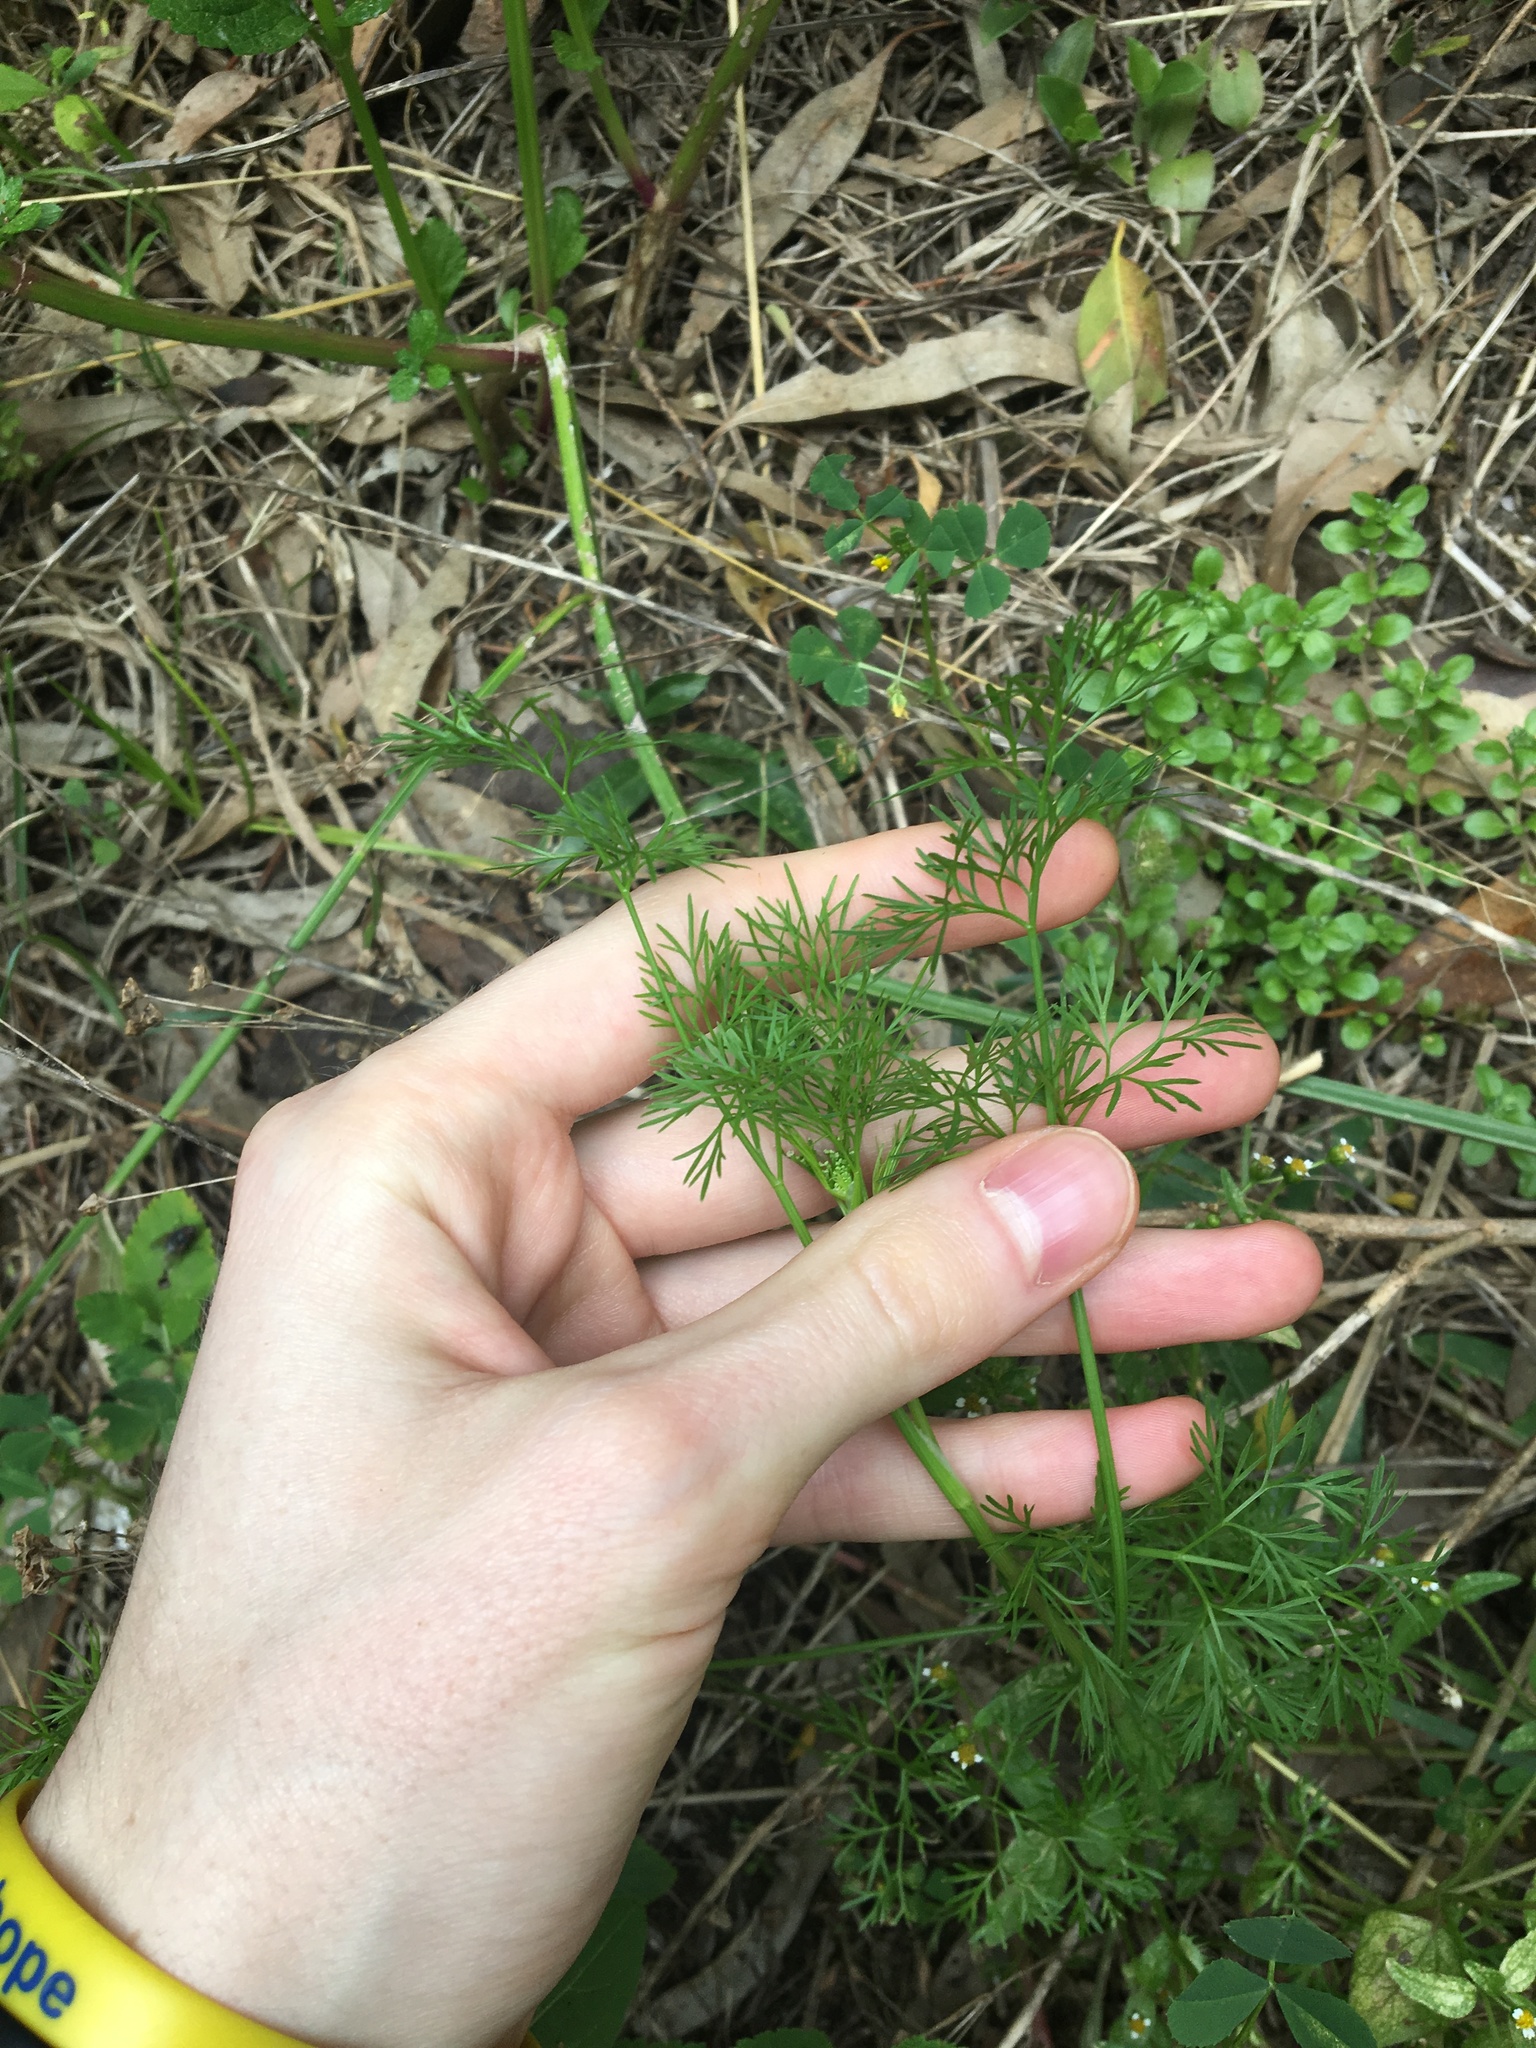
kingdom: Plantae
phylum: Tracheophyta
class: Magnoliopsida
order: Apiales
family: Apiaceae
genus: Cyclospermum
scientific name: Cyclospermum leptophyllum
